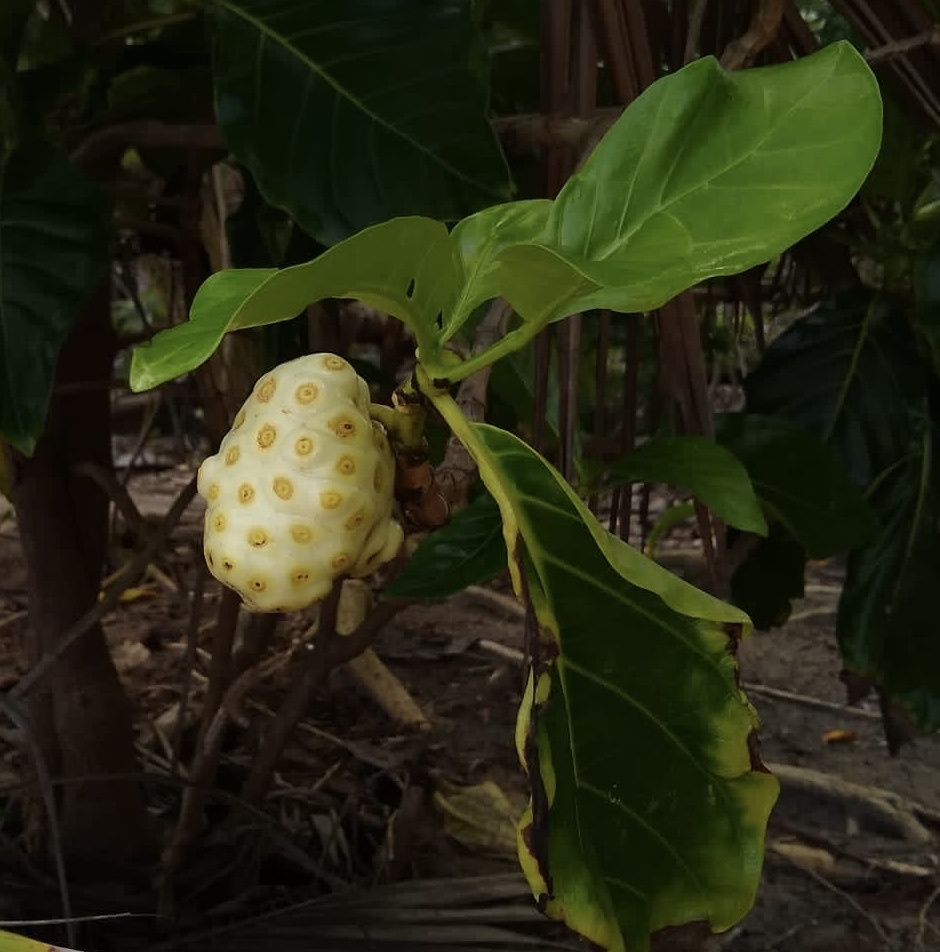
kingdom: Plantae
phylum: Tracheophyta
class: Magnoliopsida
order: Gentianales
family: Rubiaceae
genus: Morinda
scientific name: Morinda citrifolia
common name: Indian-mulberry
